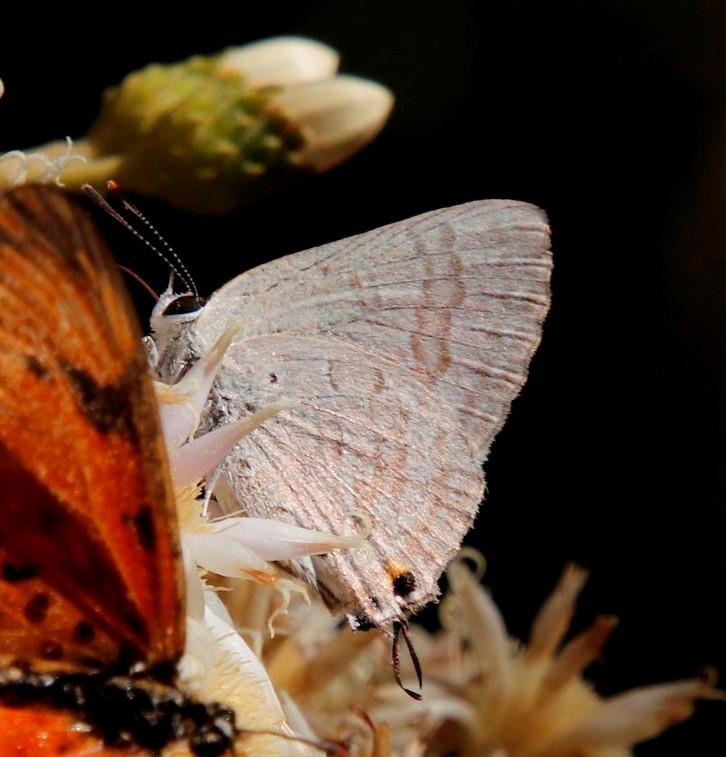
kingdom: Animalia
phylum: Arthropoda
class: Insecta
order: Lepidoptera
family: Lycaenidae
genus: Deudorix
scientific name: Deudorix antalus
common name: Brown playboy
